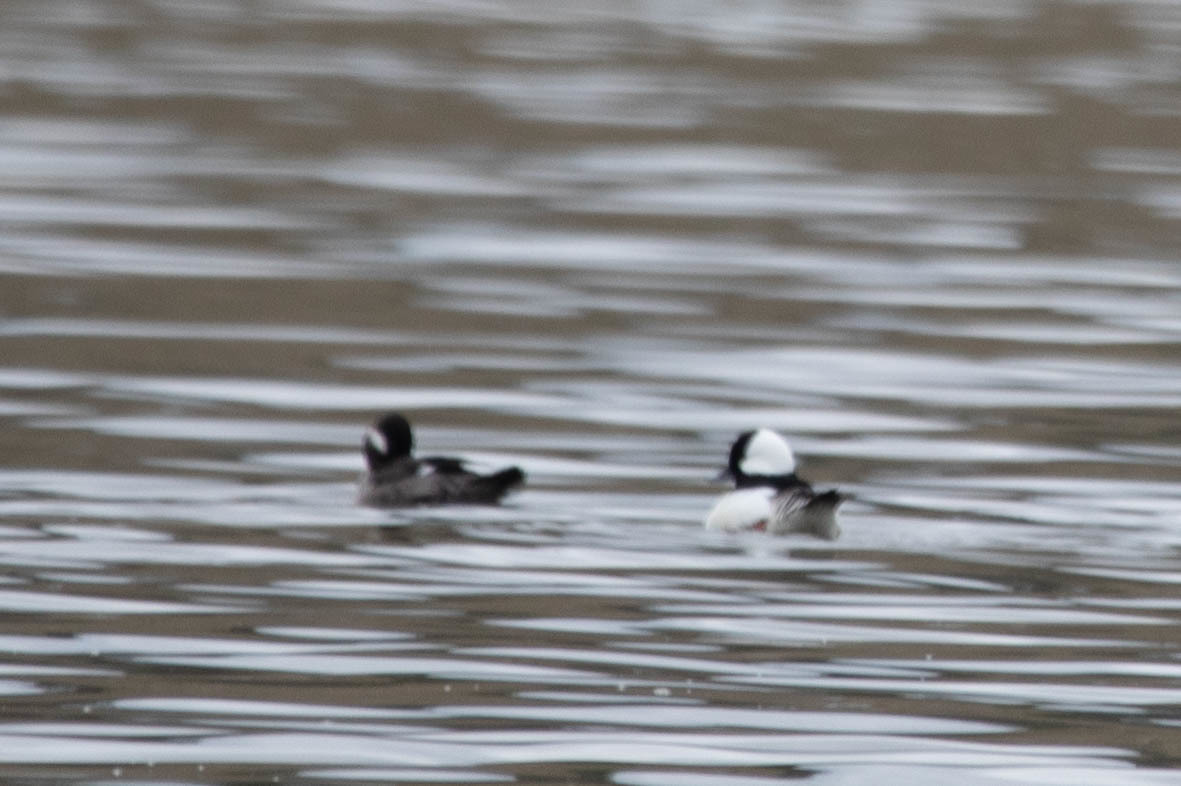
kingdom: Animalia
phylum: Chordata
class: Aves
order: Anseriformes
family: Anatidae
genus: Bucephala
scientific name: Bucephala albeola
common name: Bufflehead
